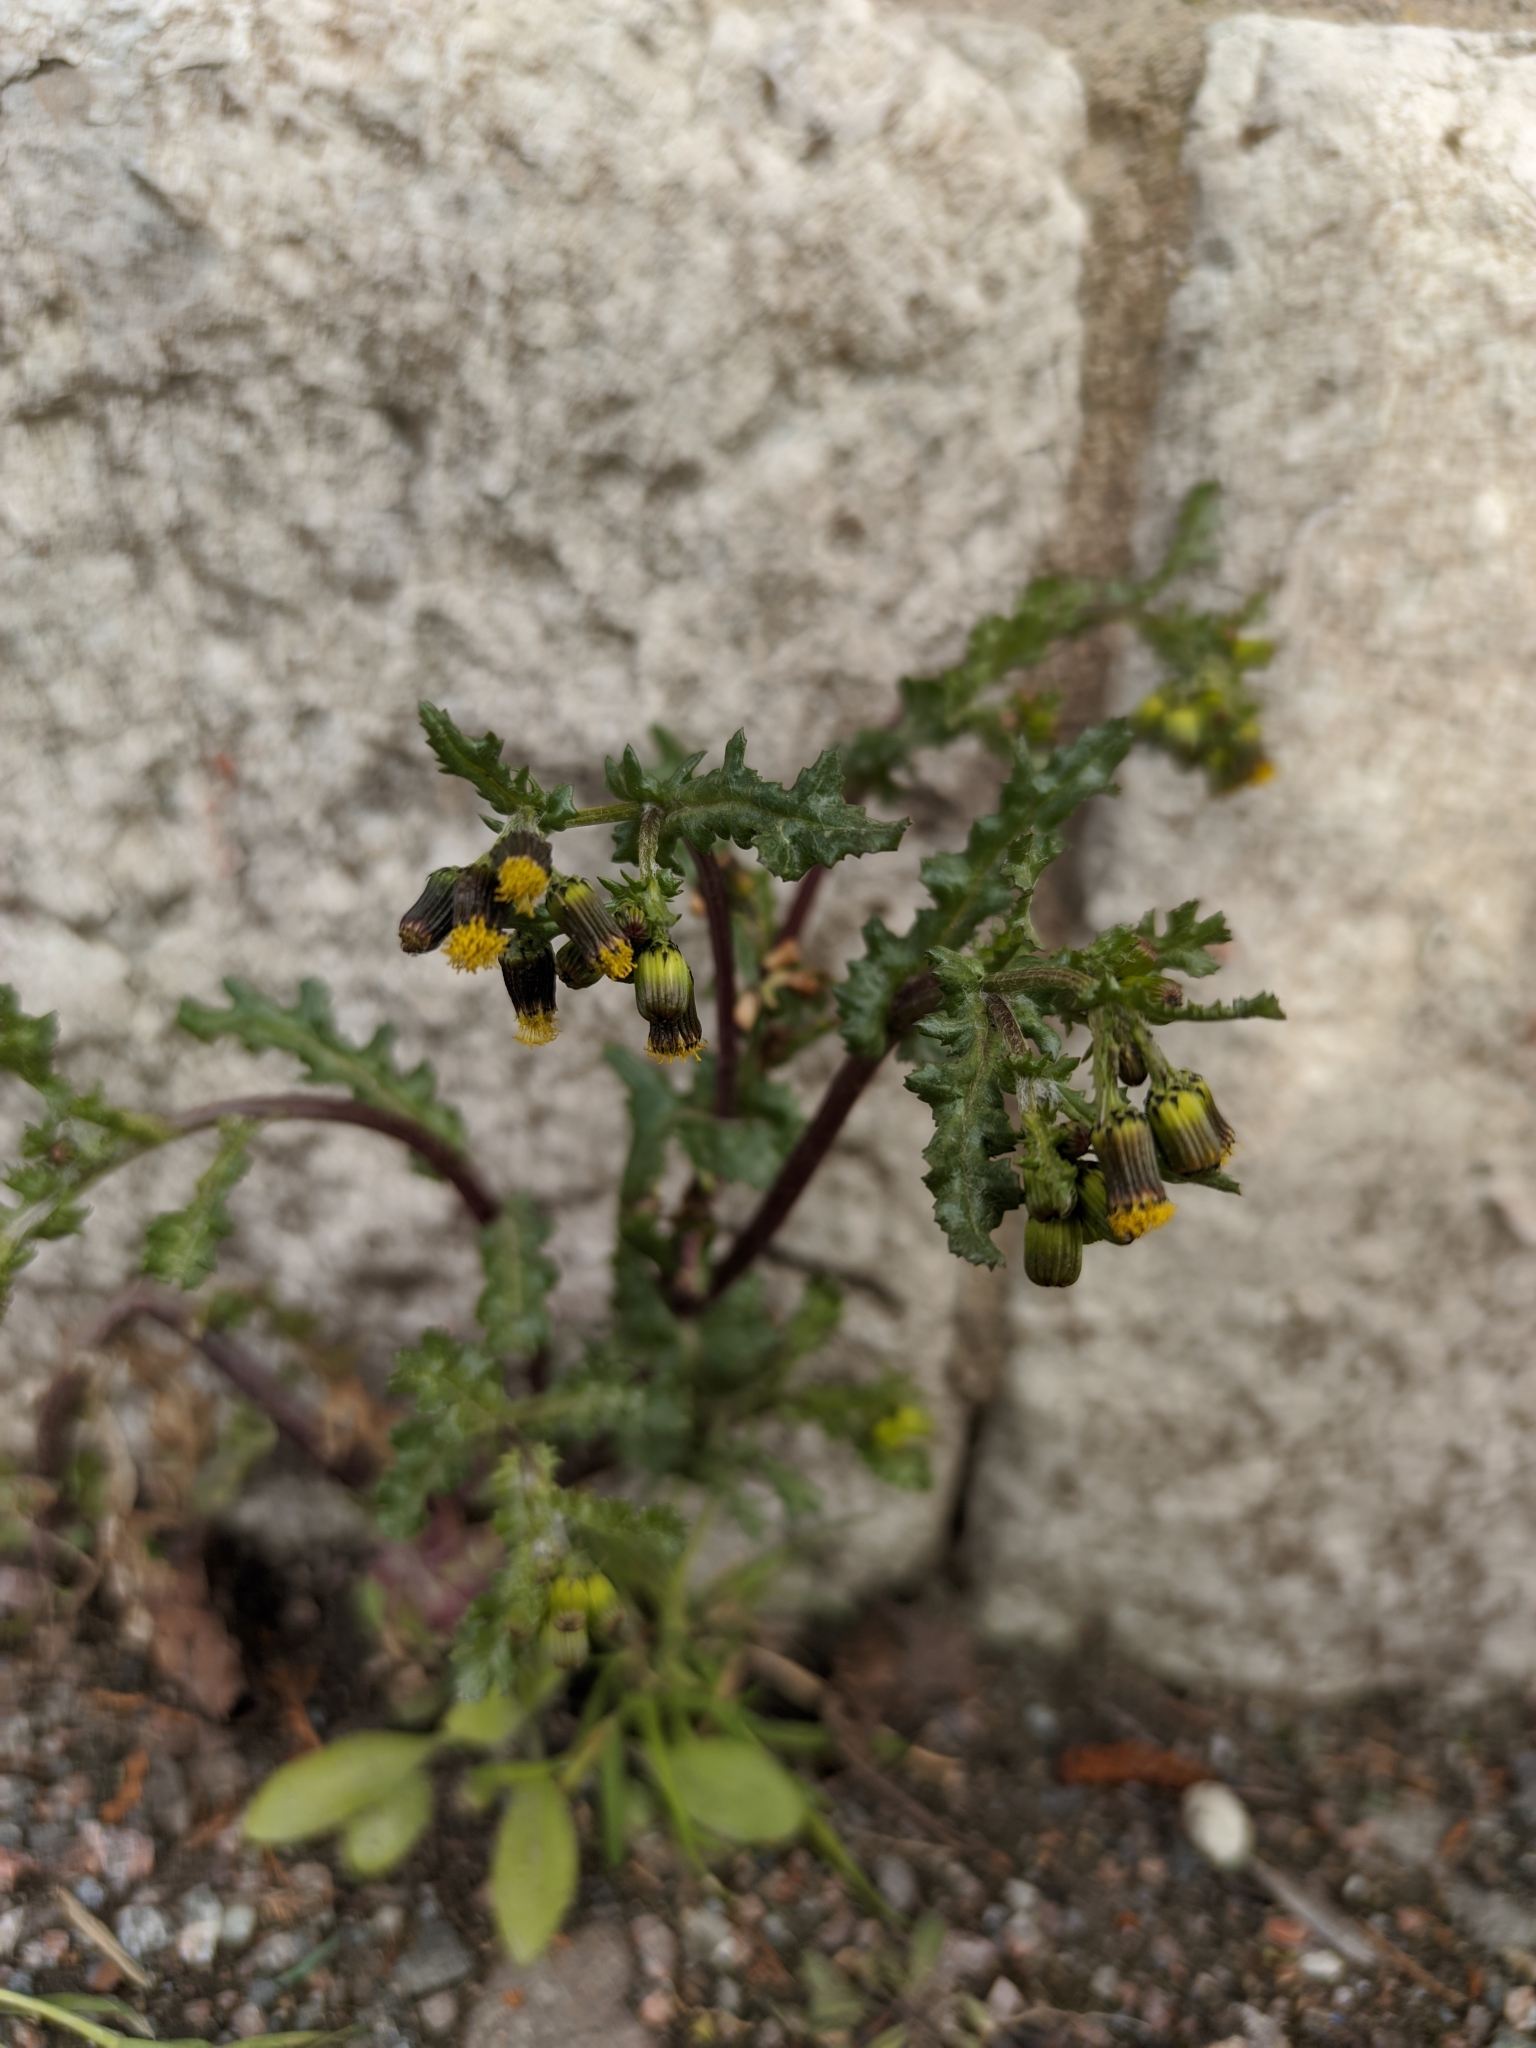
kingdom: Plantae
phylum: Tracheophyta
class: Magnoliopsida
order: Asterales
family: Asteraceae
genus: Senecio
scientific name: Senecio vulgaris
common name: Old-man-in-the-spring
